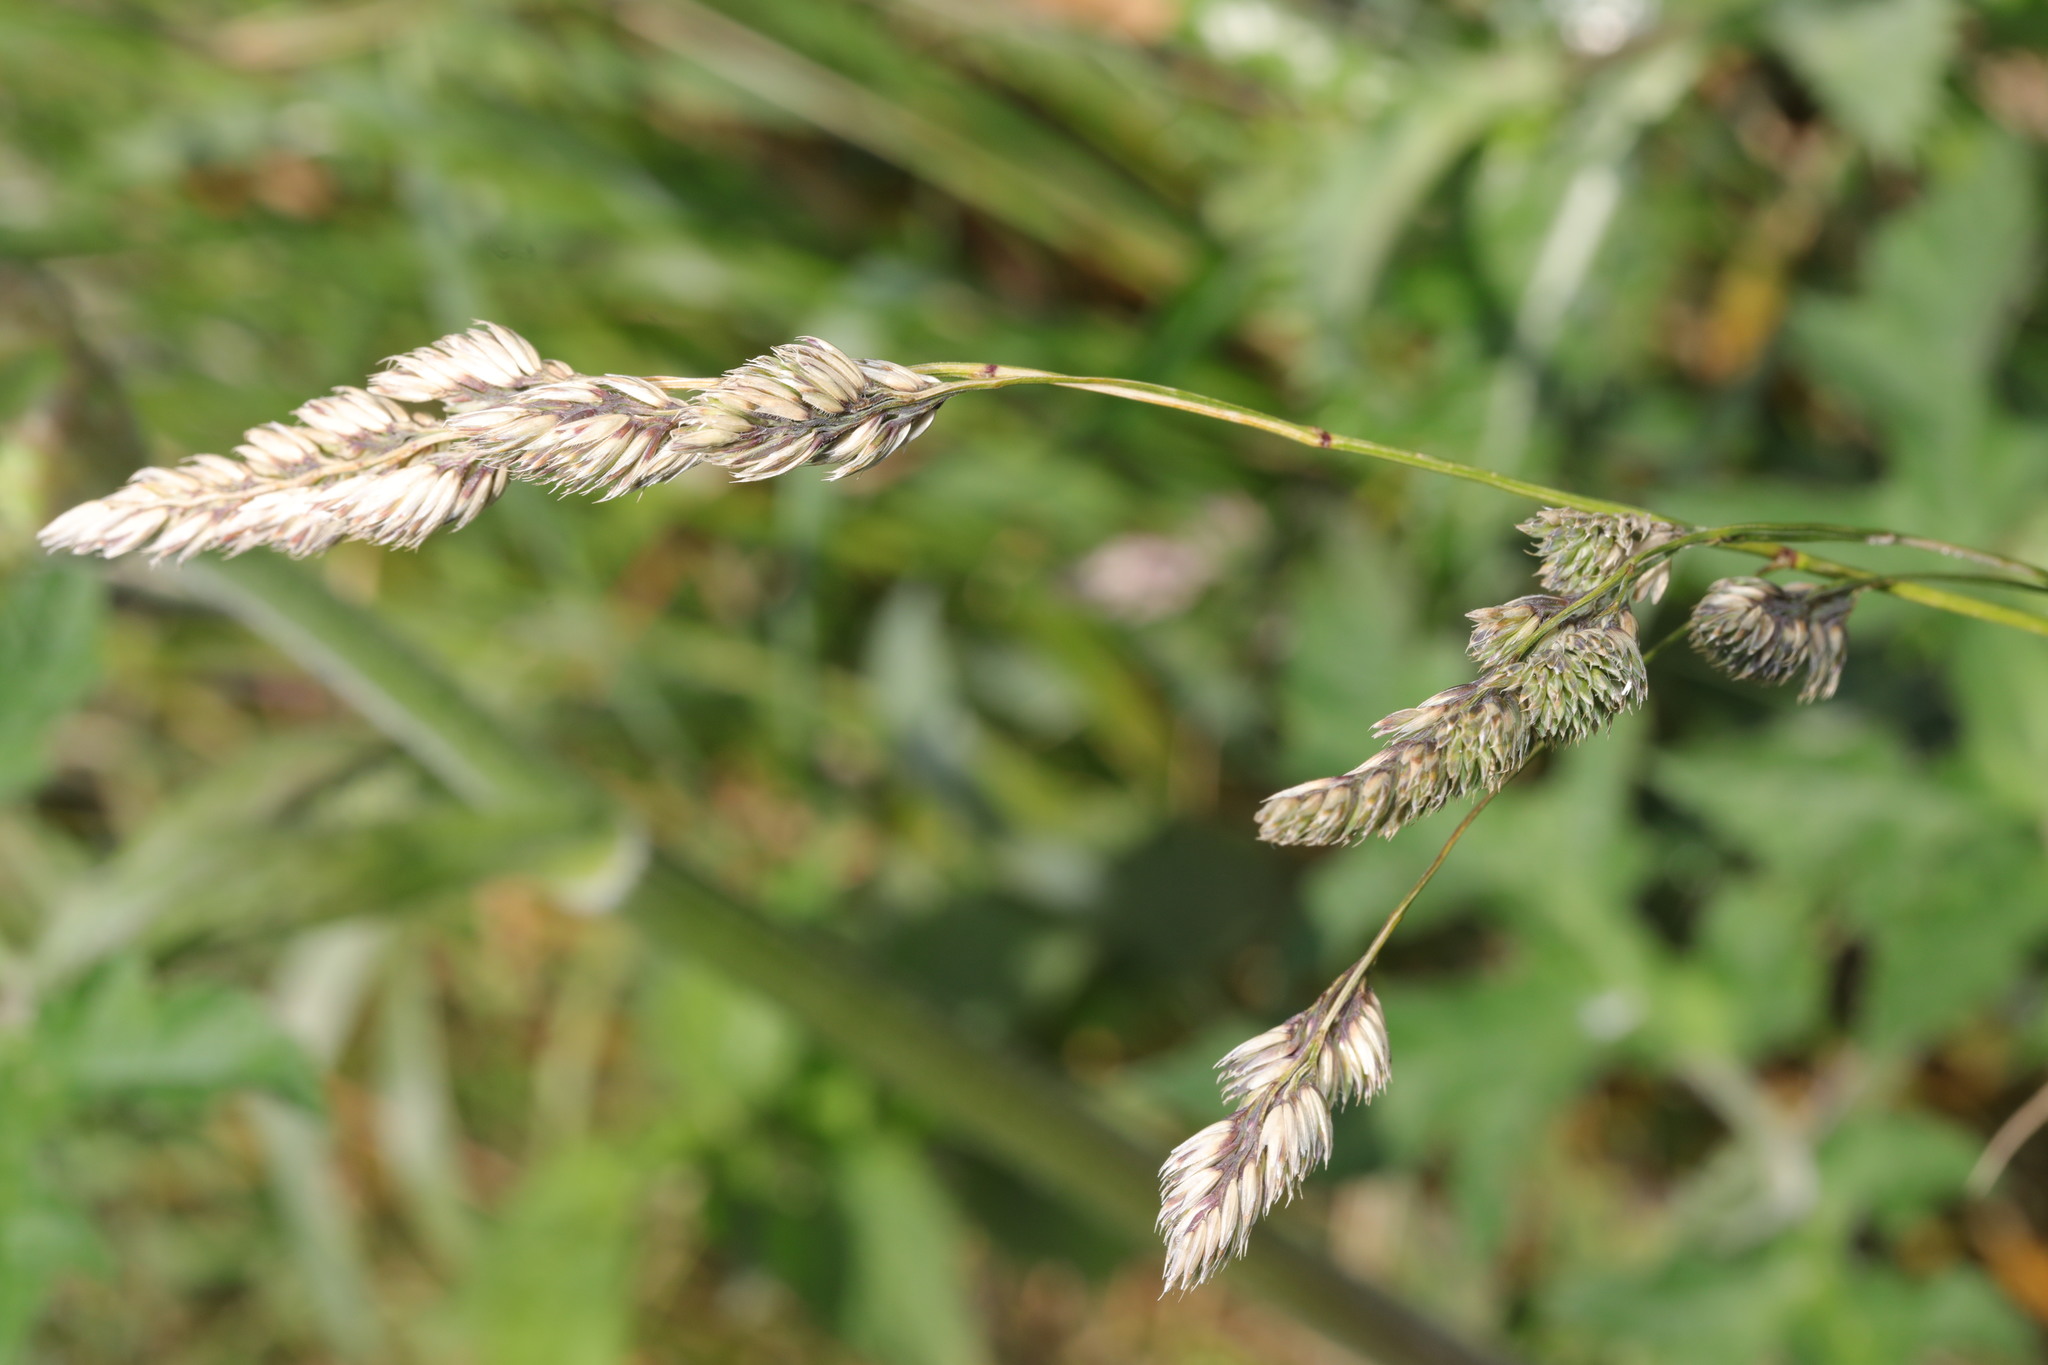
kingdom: Plantae
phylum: Tracheophyta
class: Liliopsida
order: Poales
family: Poaceae
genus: Dactylis
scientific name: Dactylis glomerata
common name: Orchardgrass
